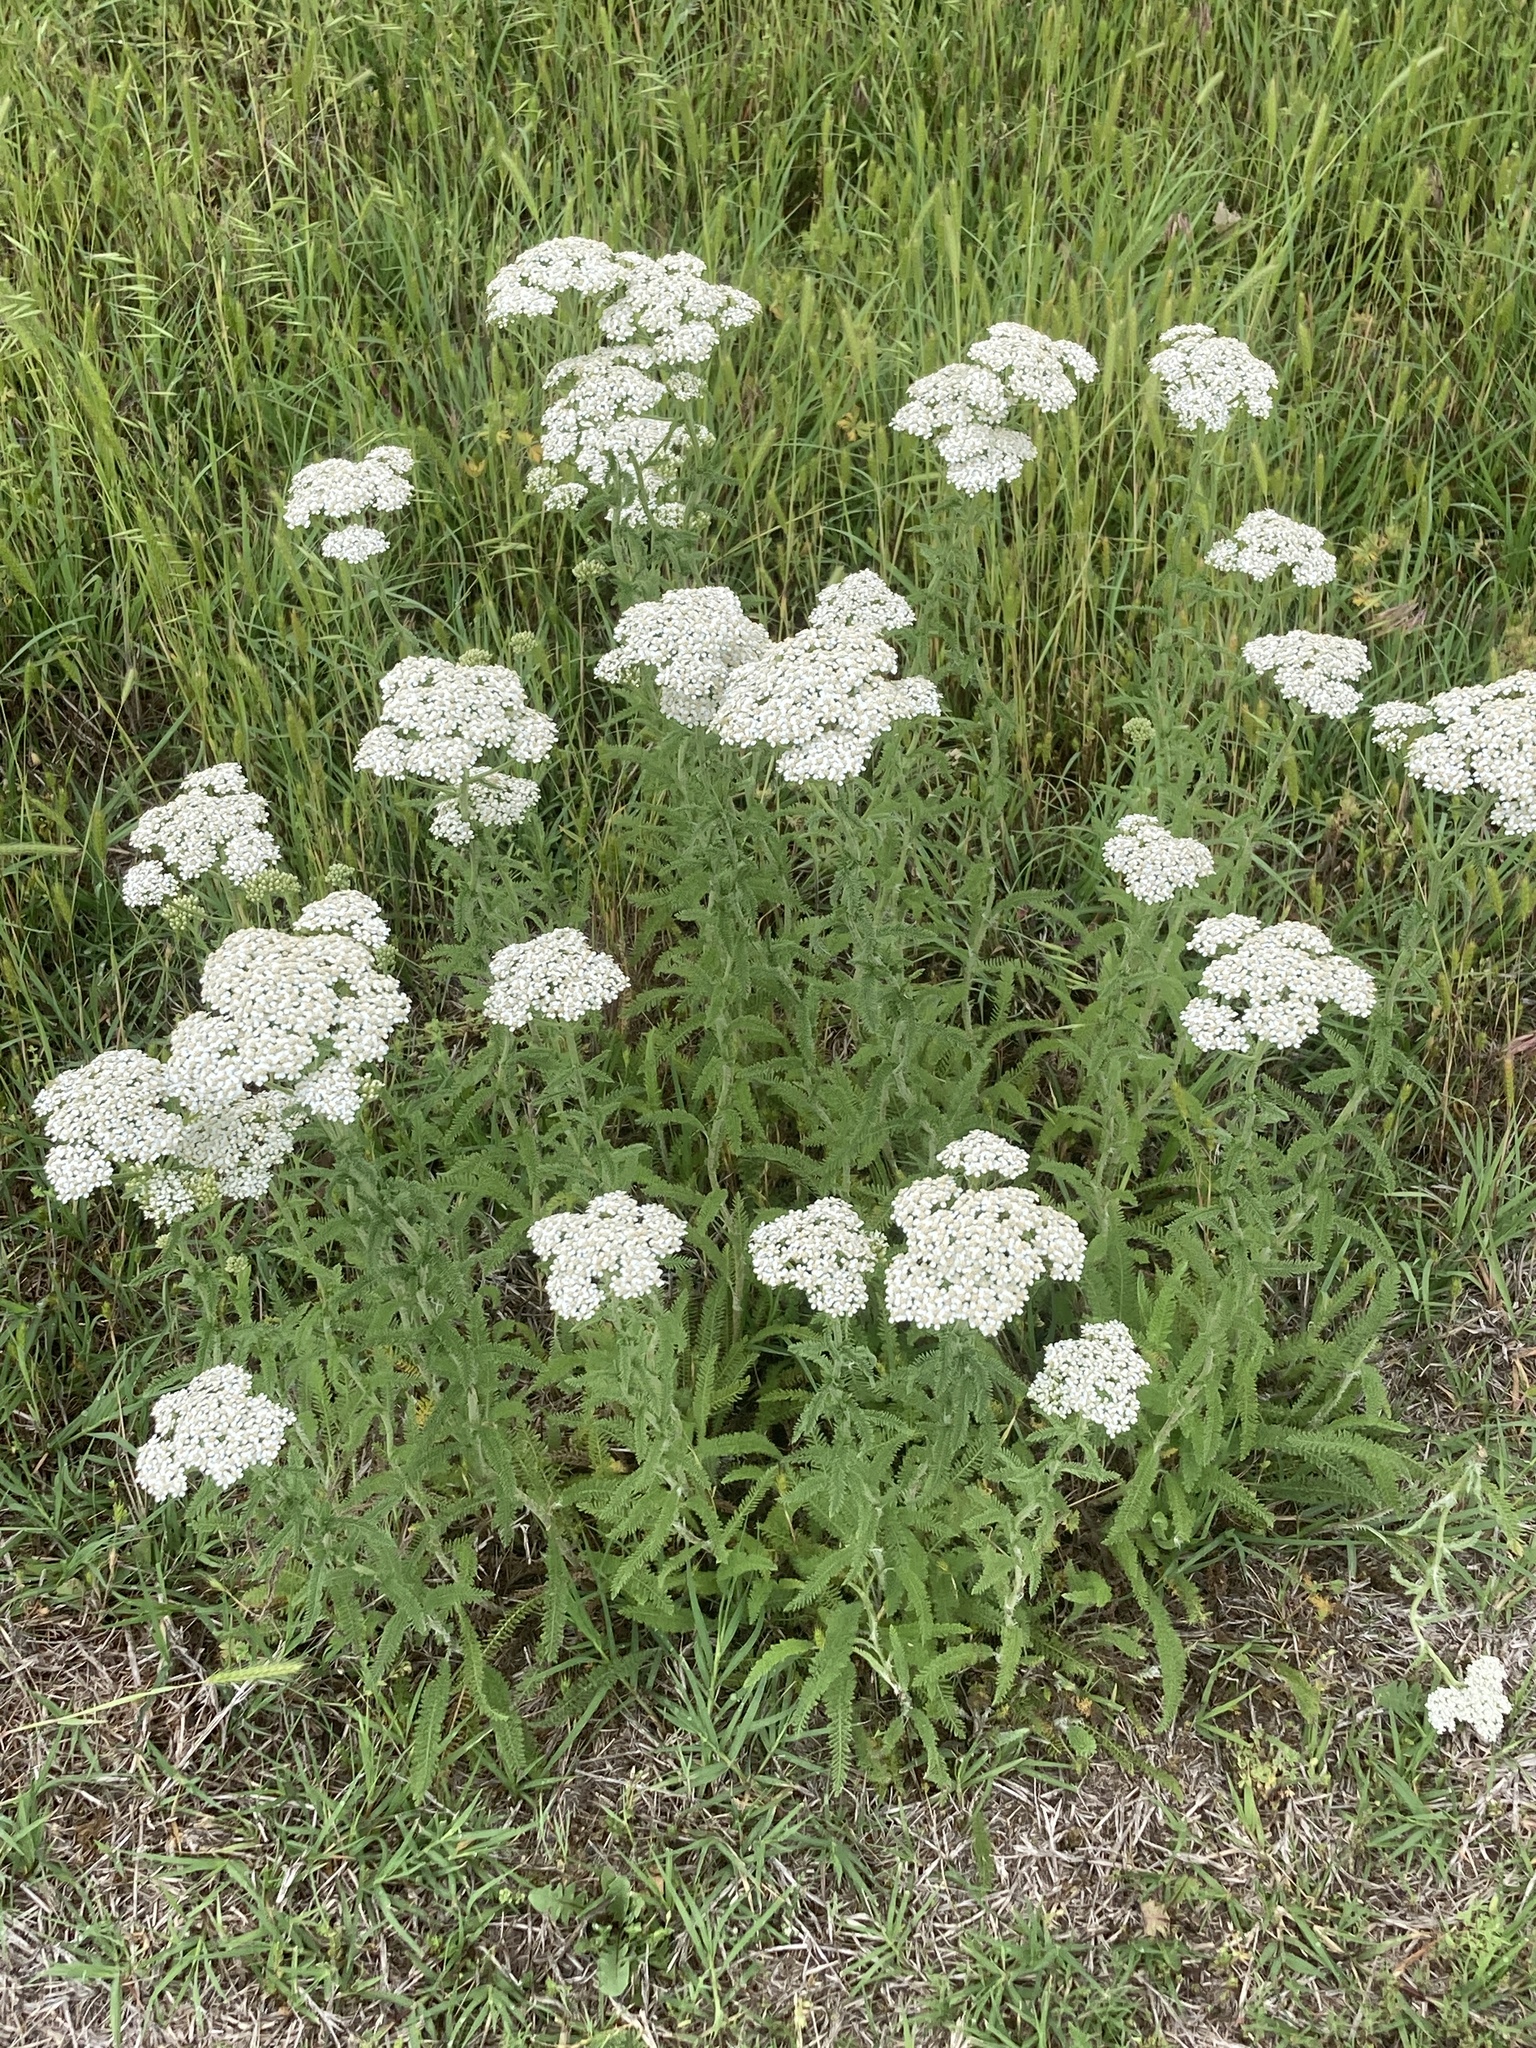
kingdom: Plantae
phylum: Tracheophyta
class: Magnoliopsida
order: Asterales
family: Asteraceae
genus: Achillea
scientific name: Achillea millefolium
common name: Yarrow
